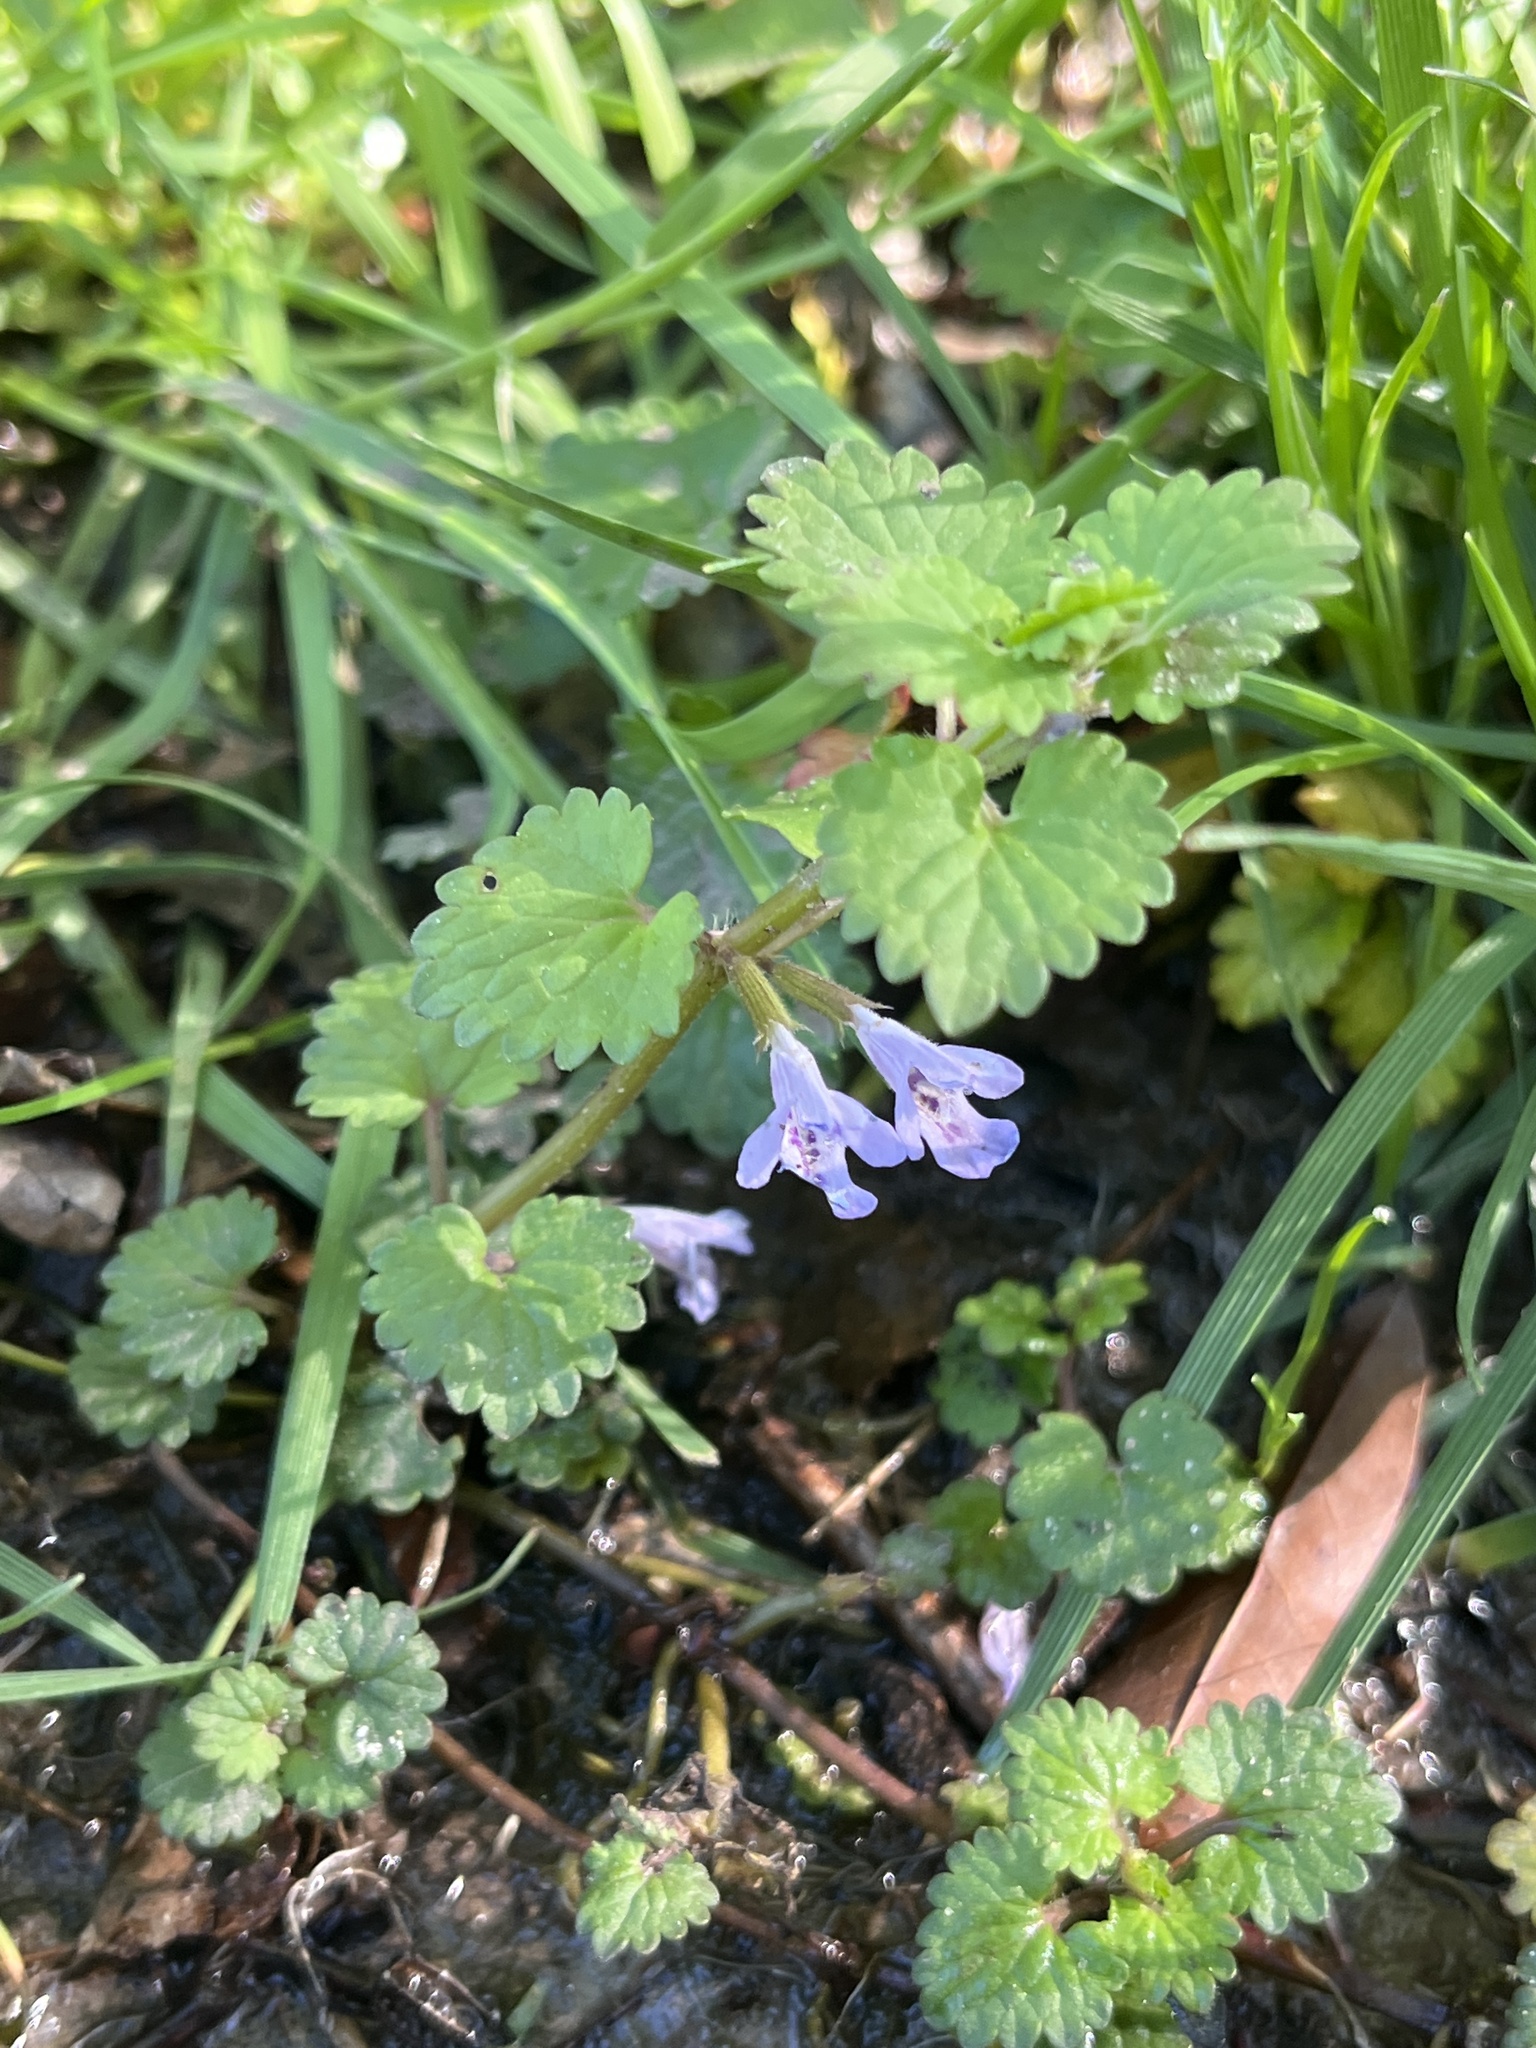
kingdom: Plantae
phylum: Tracheophyta
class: Magnoliopsida
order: Lamiales
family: Lamiaceae
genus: Glechoma
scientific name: Glechoma hederacea
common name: Ground ivy
